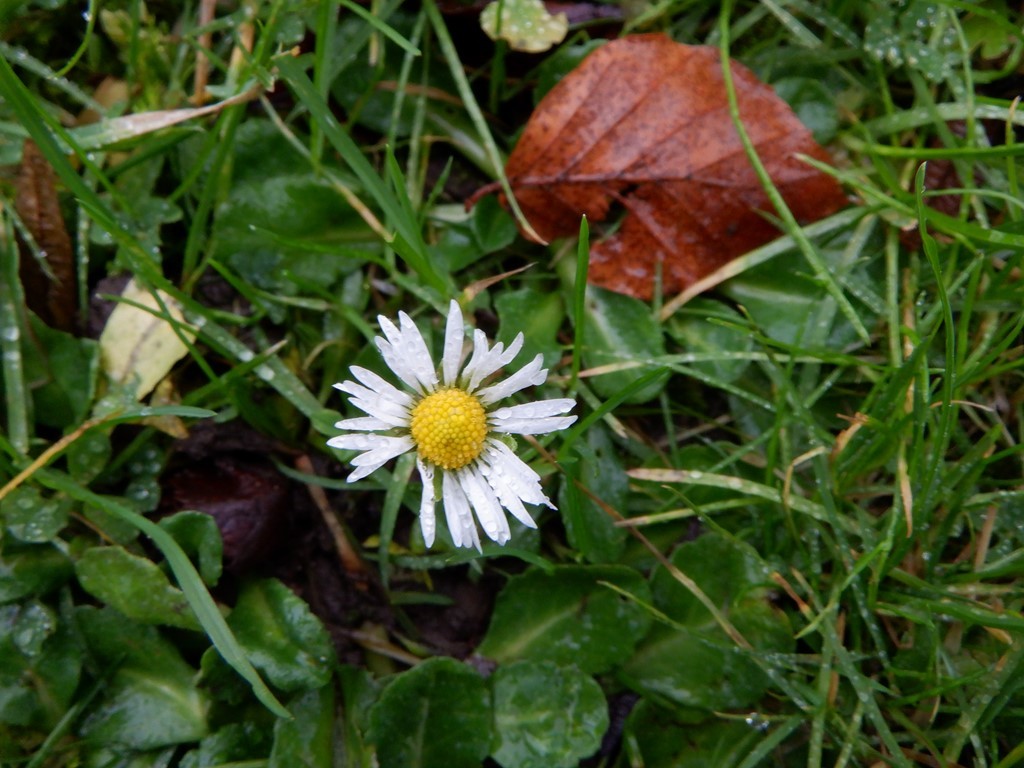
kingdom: Plantae
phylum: Tracheophyta
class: Magnoliopsida
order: Asterales
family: Asteraceae
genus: Bellis
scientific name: Bellis perennis
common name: Lawndaisy
